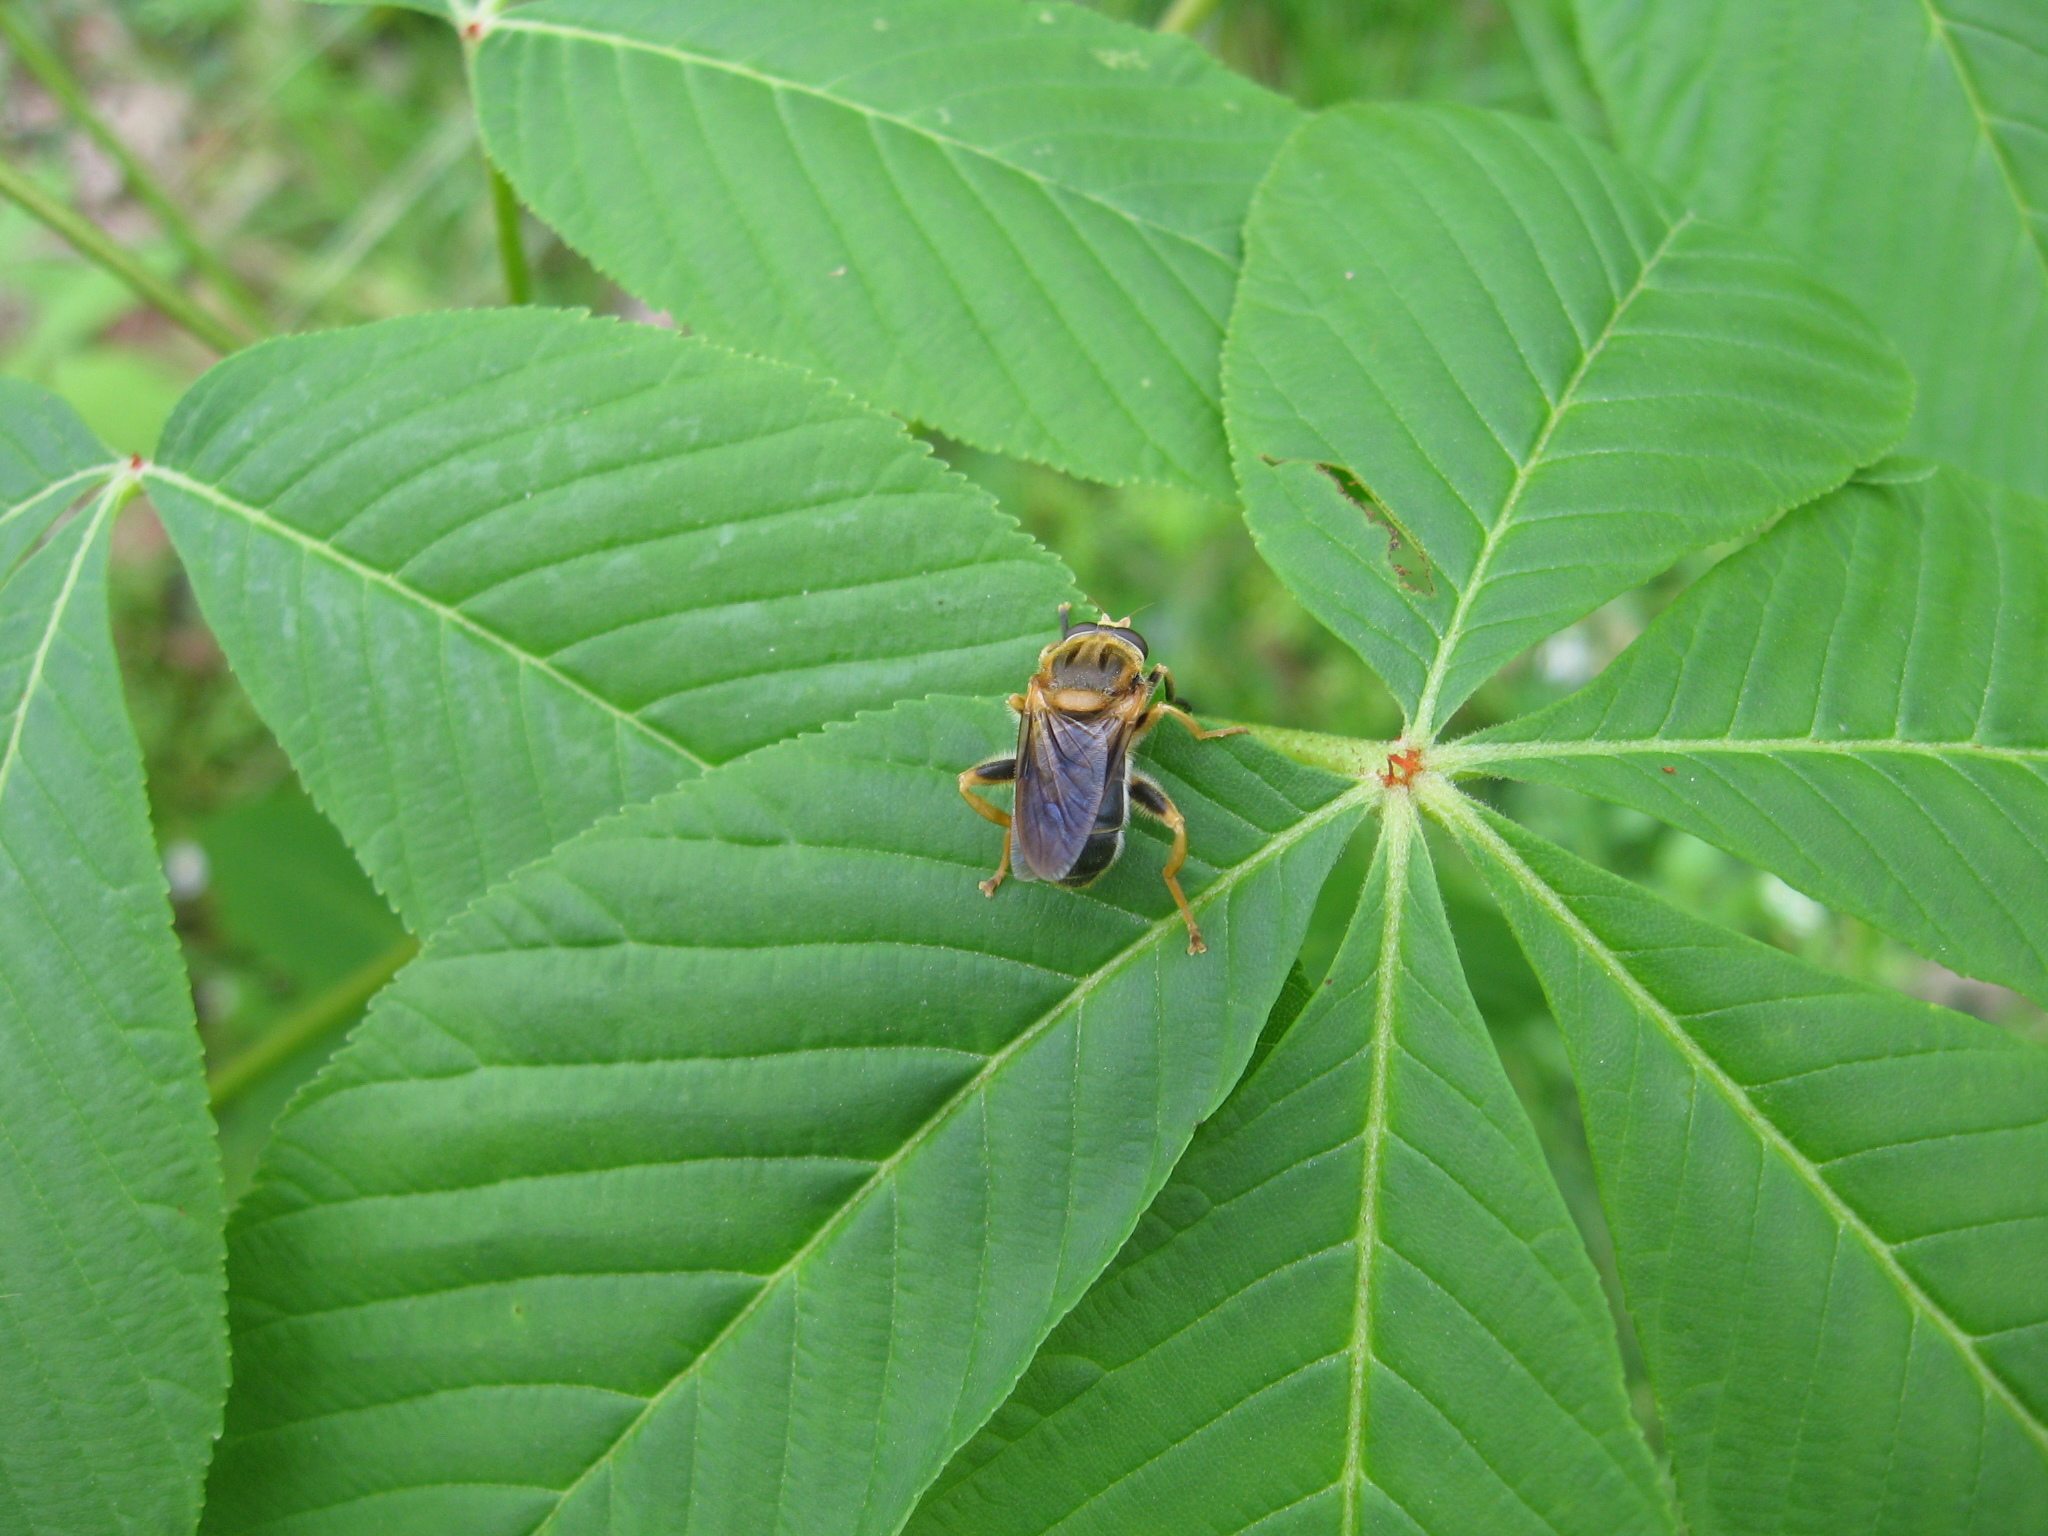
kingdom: Animalia
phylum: Arthropoda
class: Insecta
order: Diptera
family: Syrphidae
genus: Teuchocnemis
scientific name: Teuchocnemis lituratus
